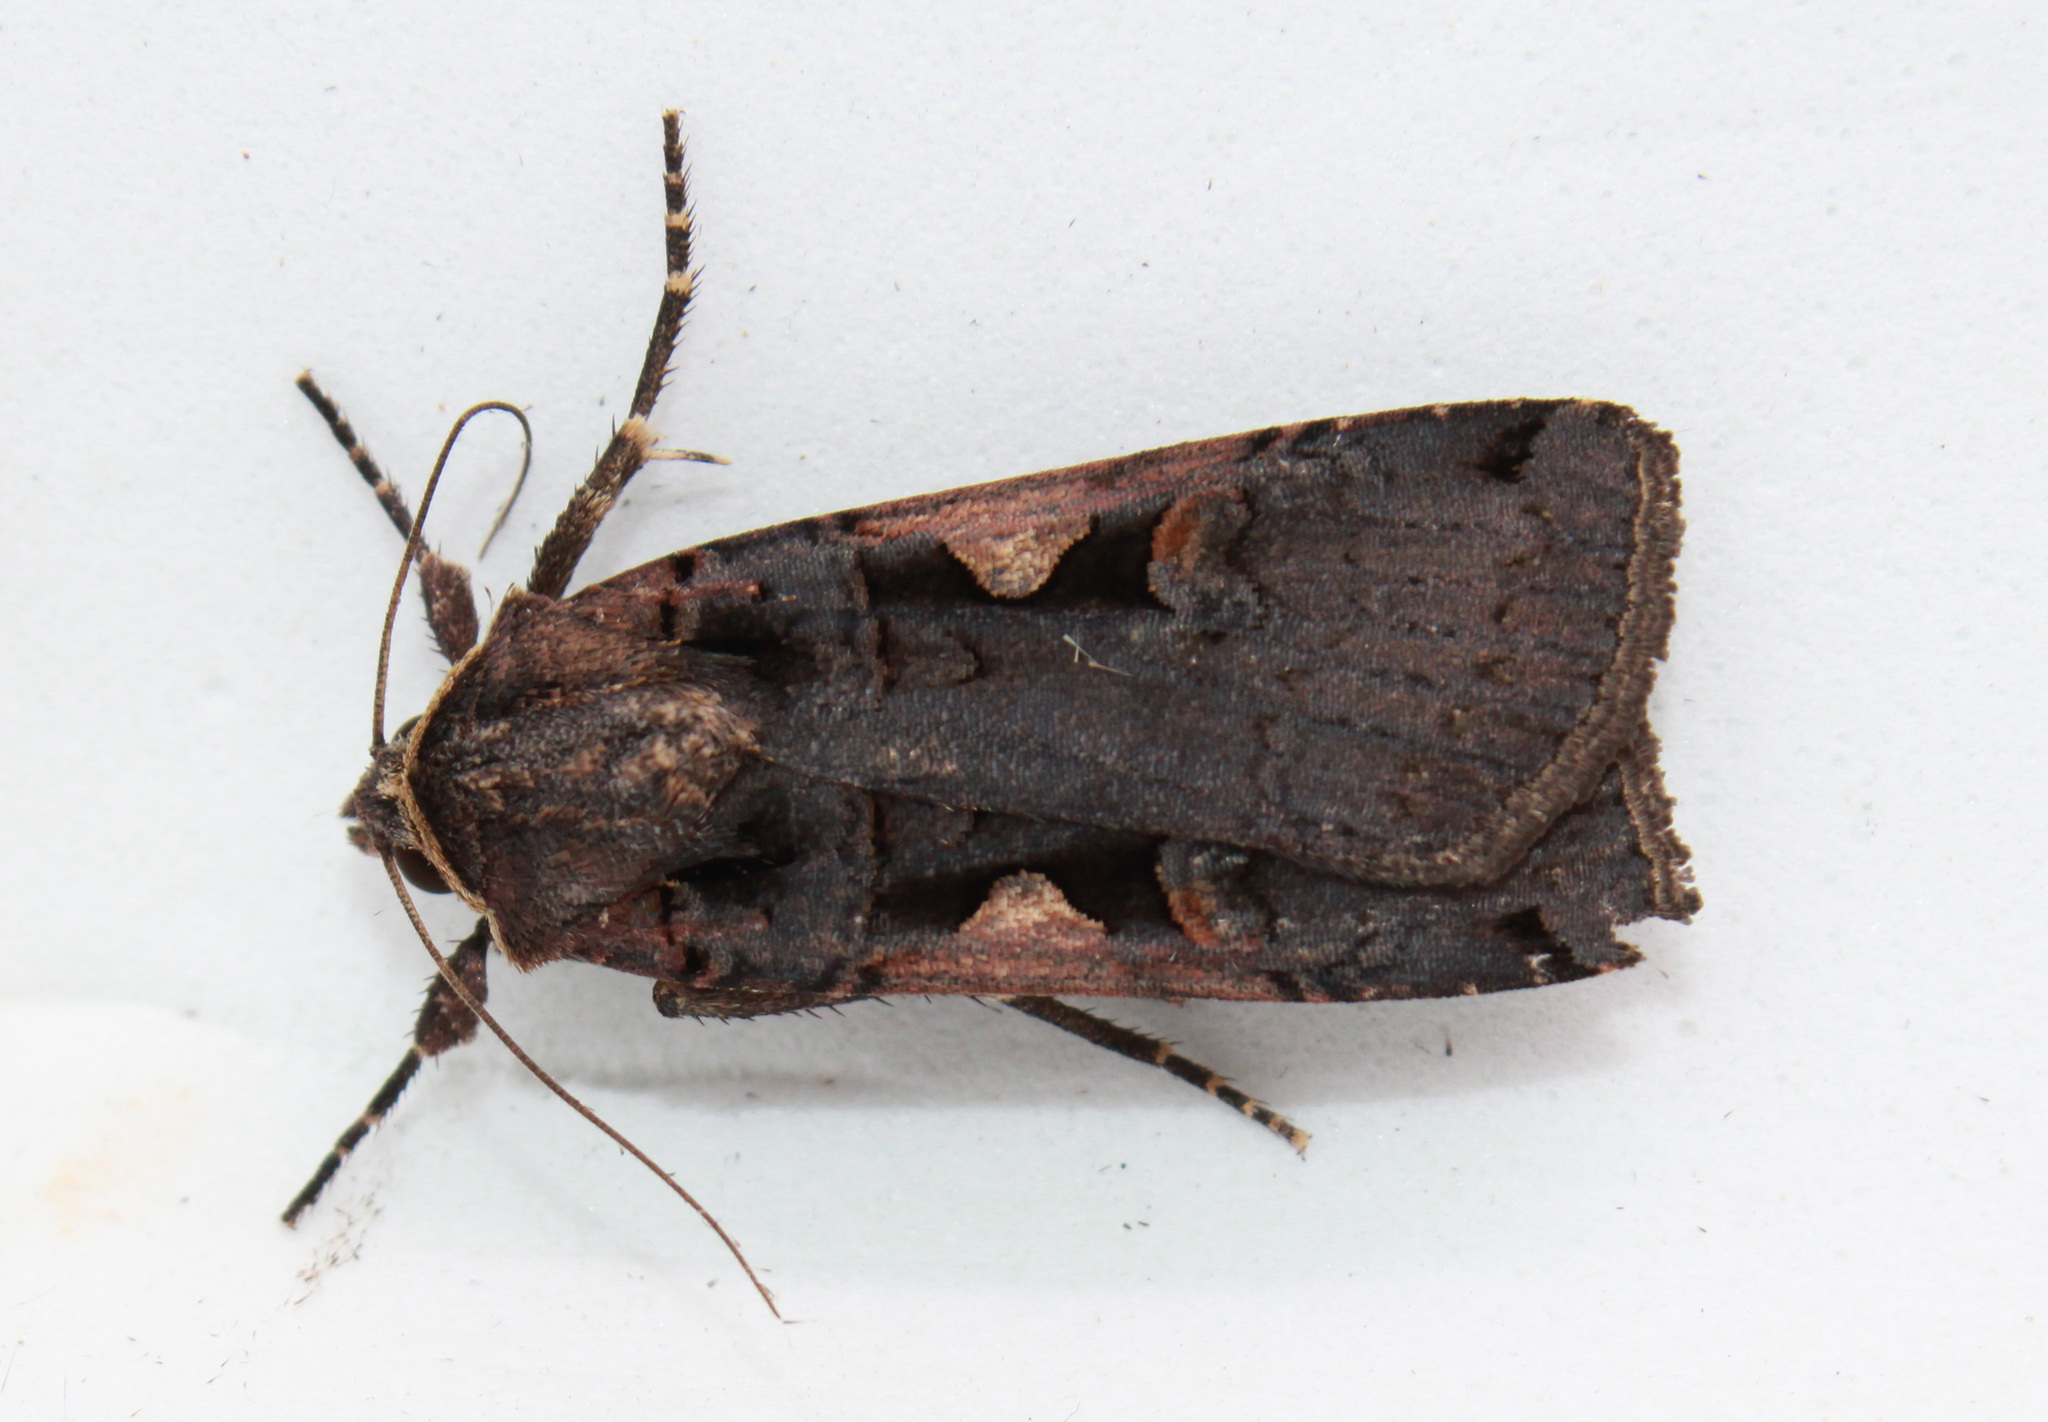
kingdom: Animalia
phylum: Arthropoda
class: Insecta
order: Lepidoptera
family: Noctuidae
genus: Xestia
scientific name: Xestia dolosa
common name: Cutworm moth
